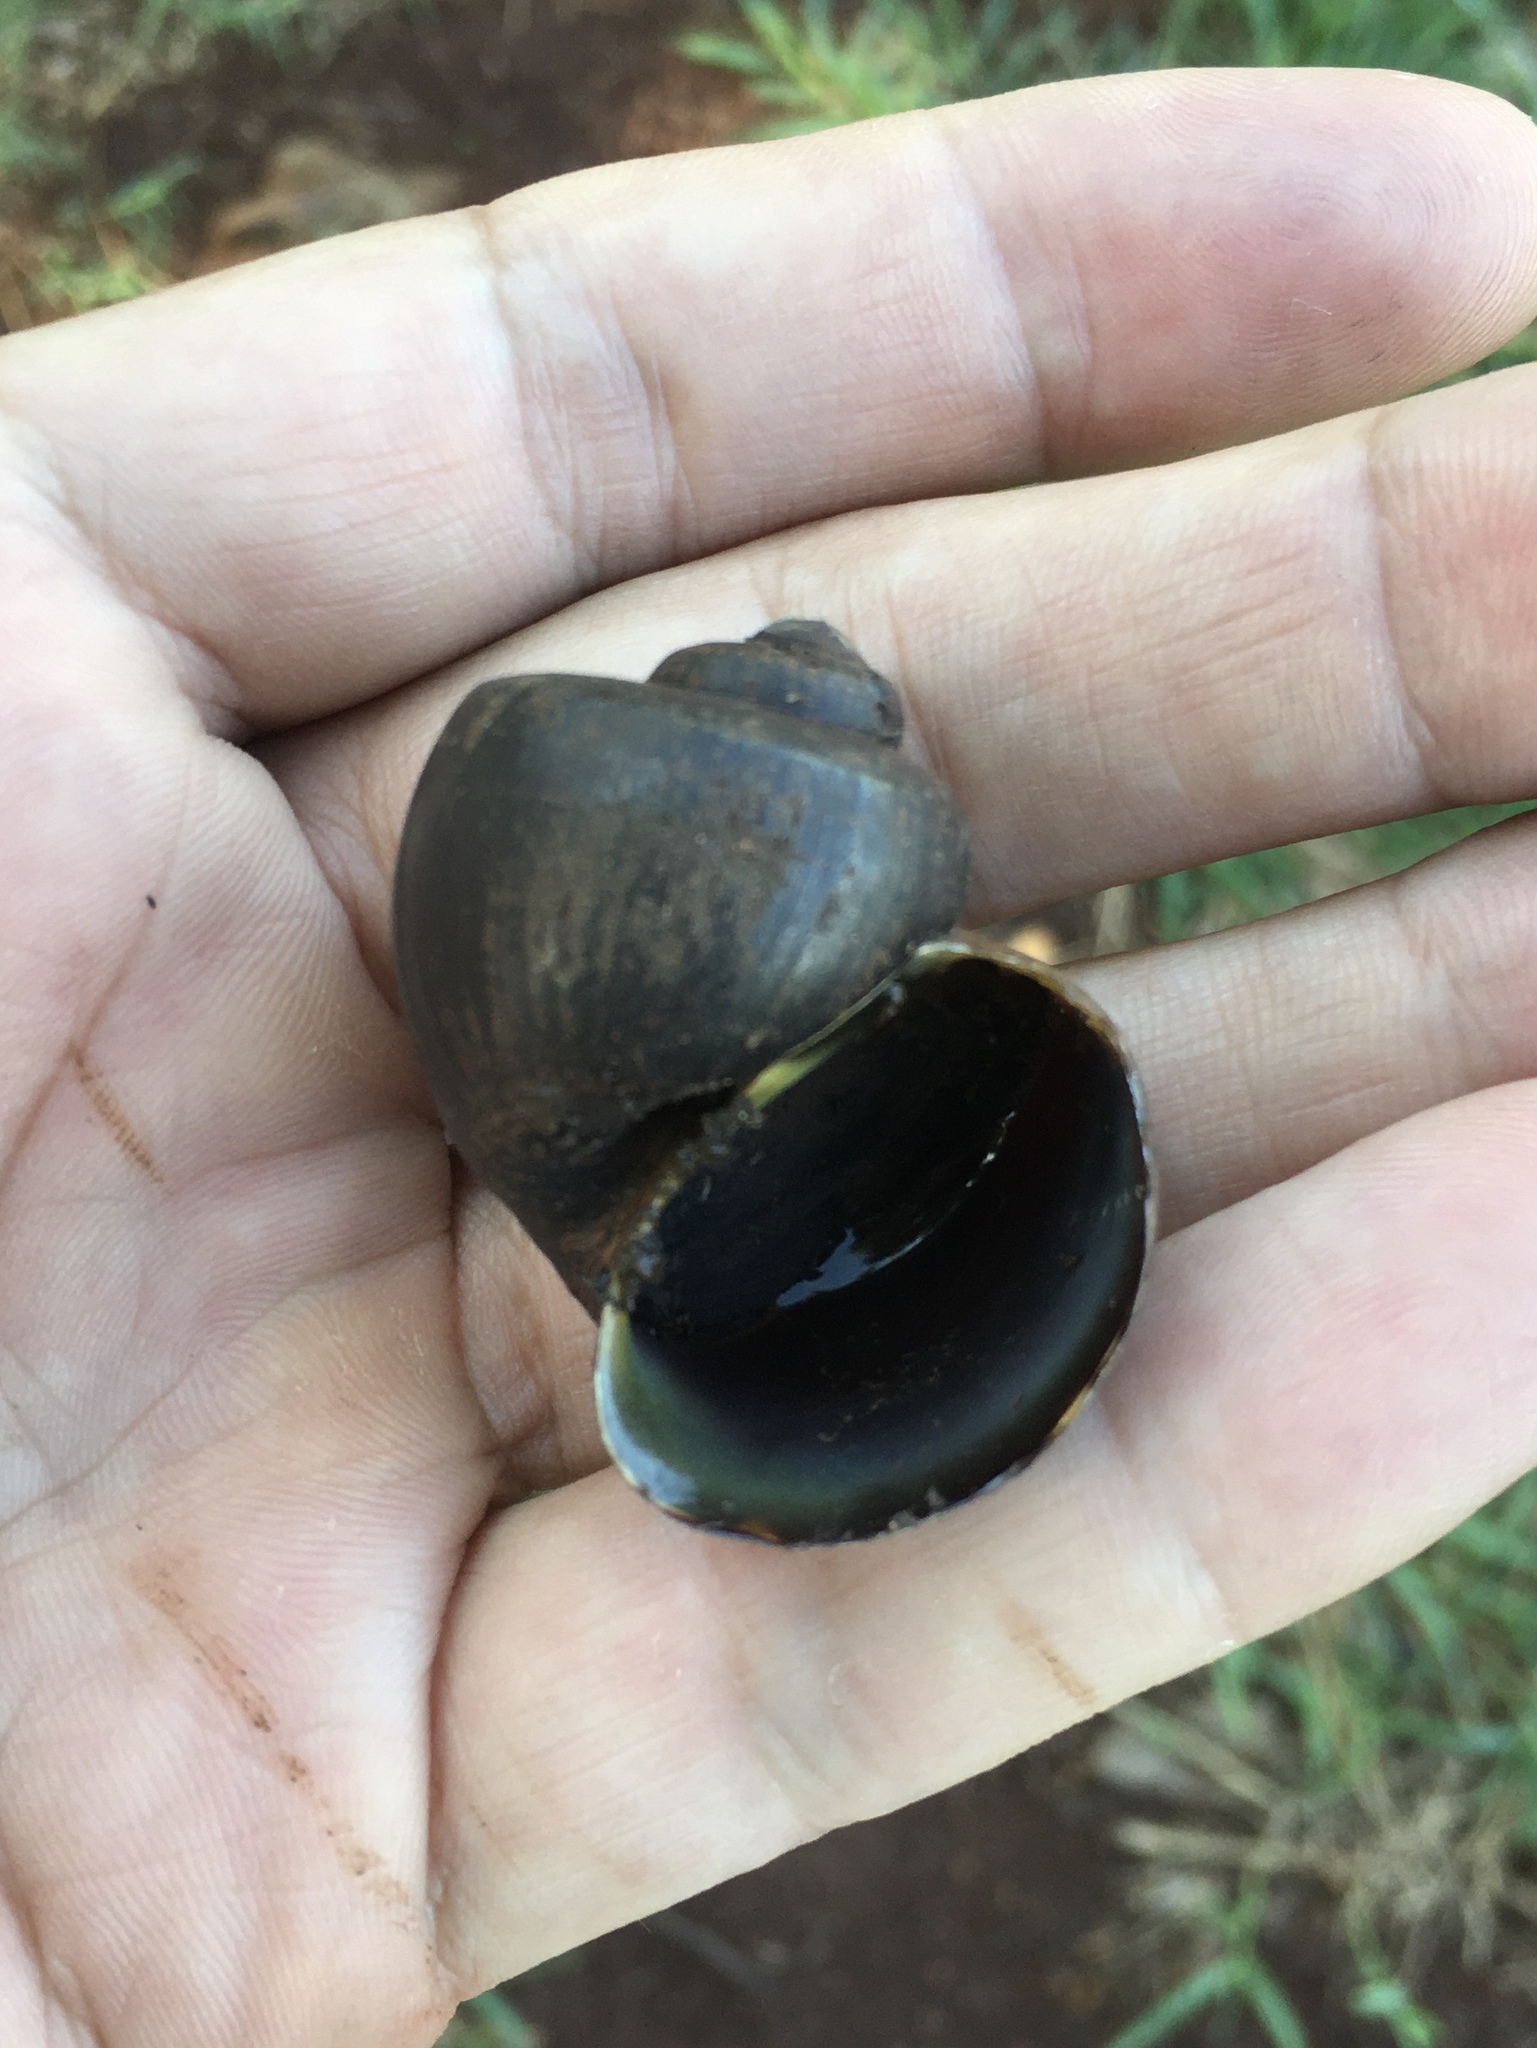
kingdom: Animalia
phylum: Mollusca
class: Gastropoda
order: Architaenioglossa
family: Ampullariidae
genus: Pomacea
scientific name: Pomacea scalaris
